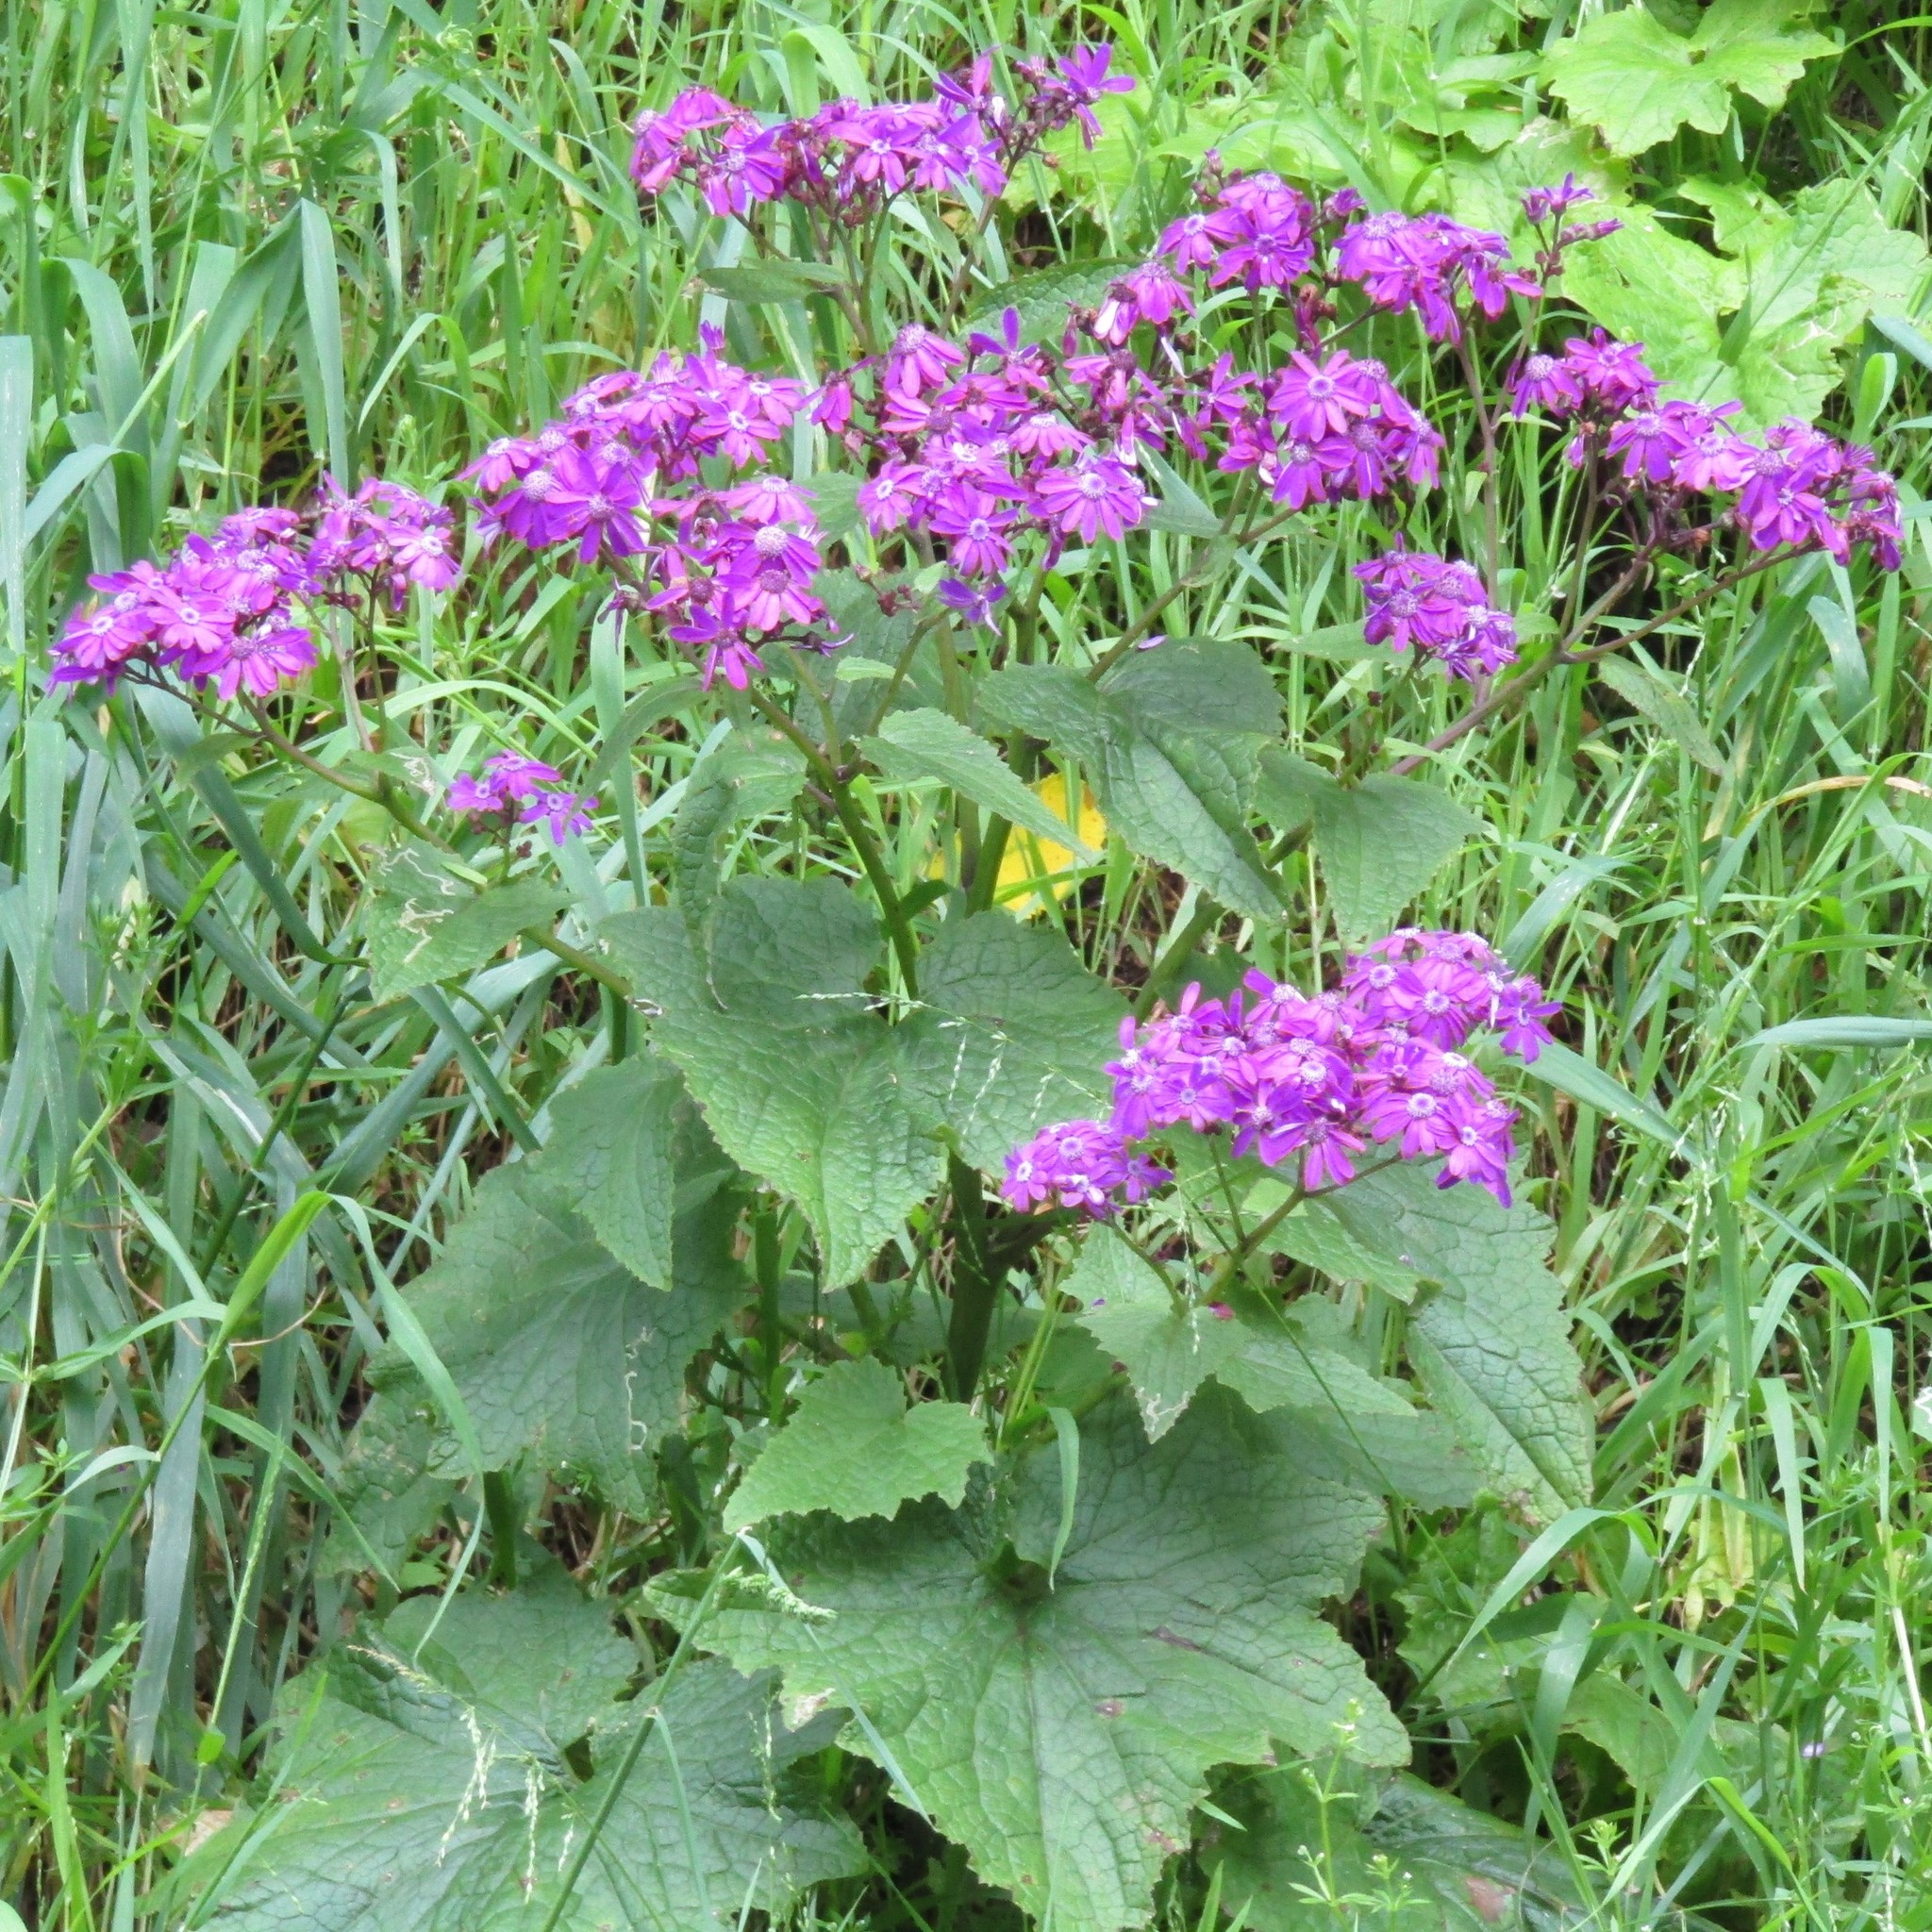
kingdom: Plantae
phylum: Tracheophyta
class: Magnoliopsida
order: Asterales
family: Asteraceae
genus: Pericallis
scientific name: Pericallis hybrida
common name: Cineraria
